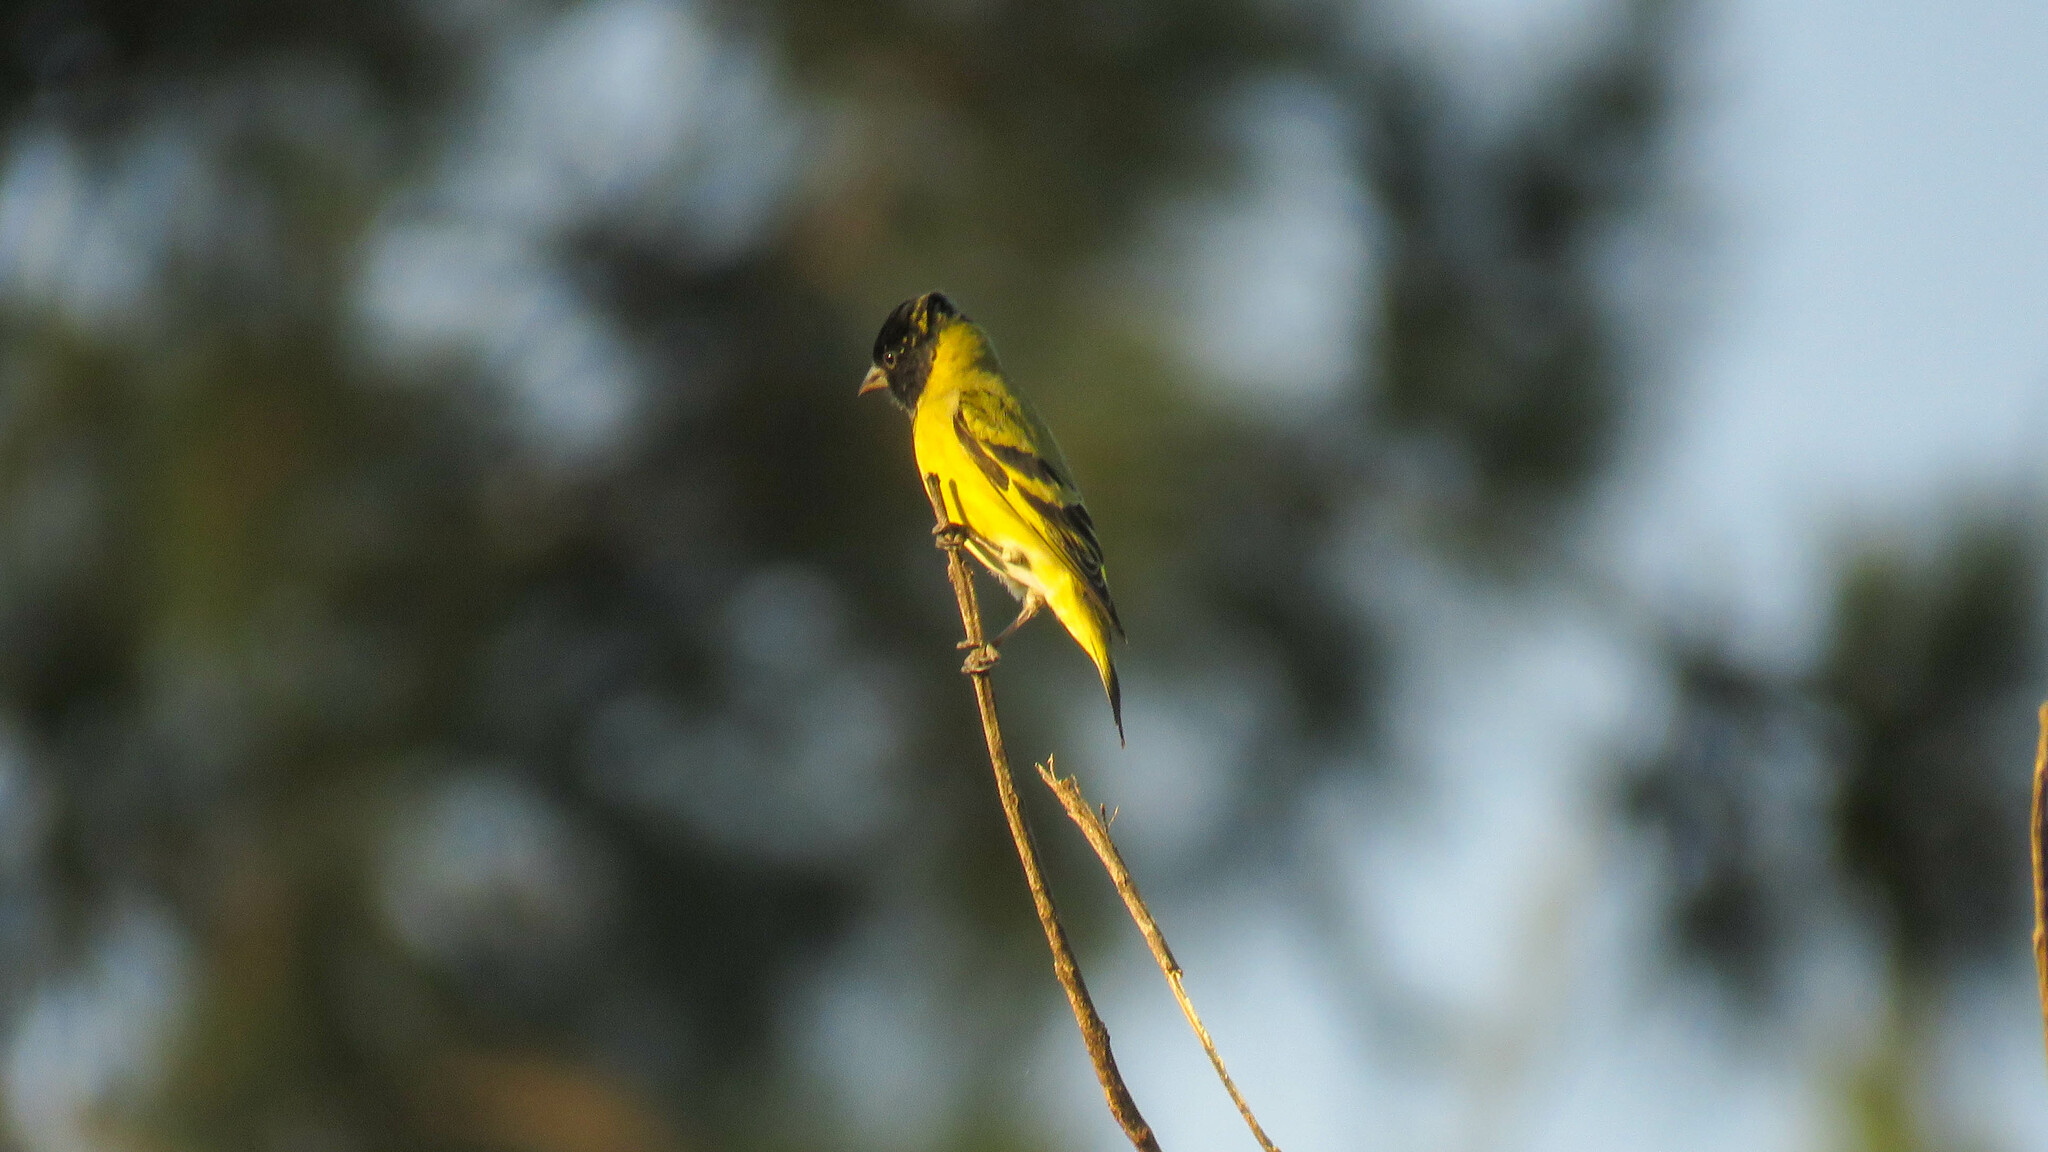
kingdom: Animalia
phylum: Chordata
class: Aves
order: Passeriformes
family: Fringillidae
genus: Spinus
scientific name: Spinus magellanicus
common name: Hooded siskin
